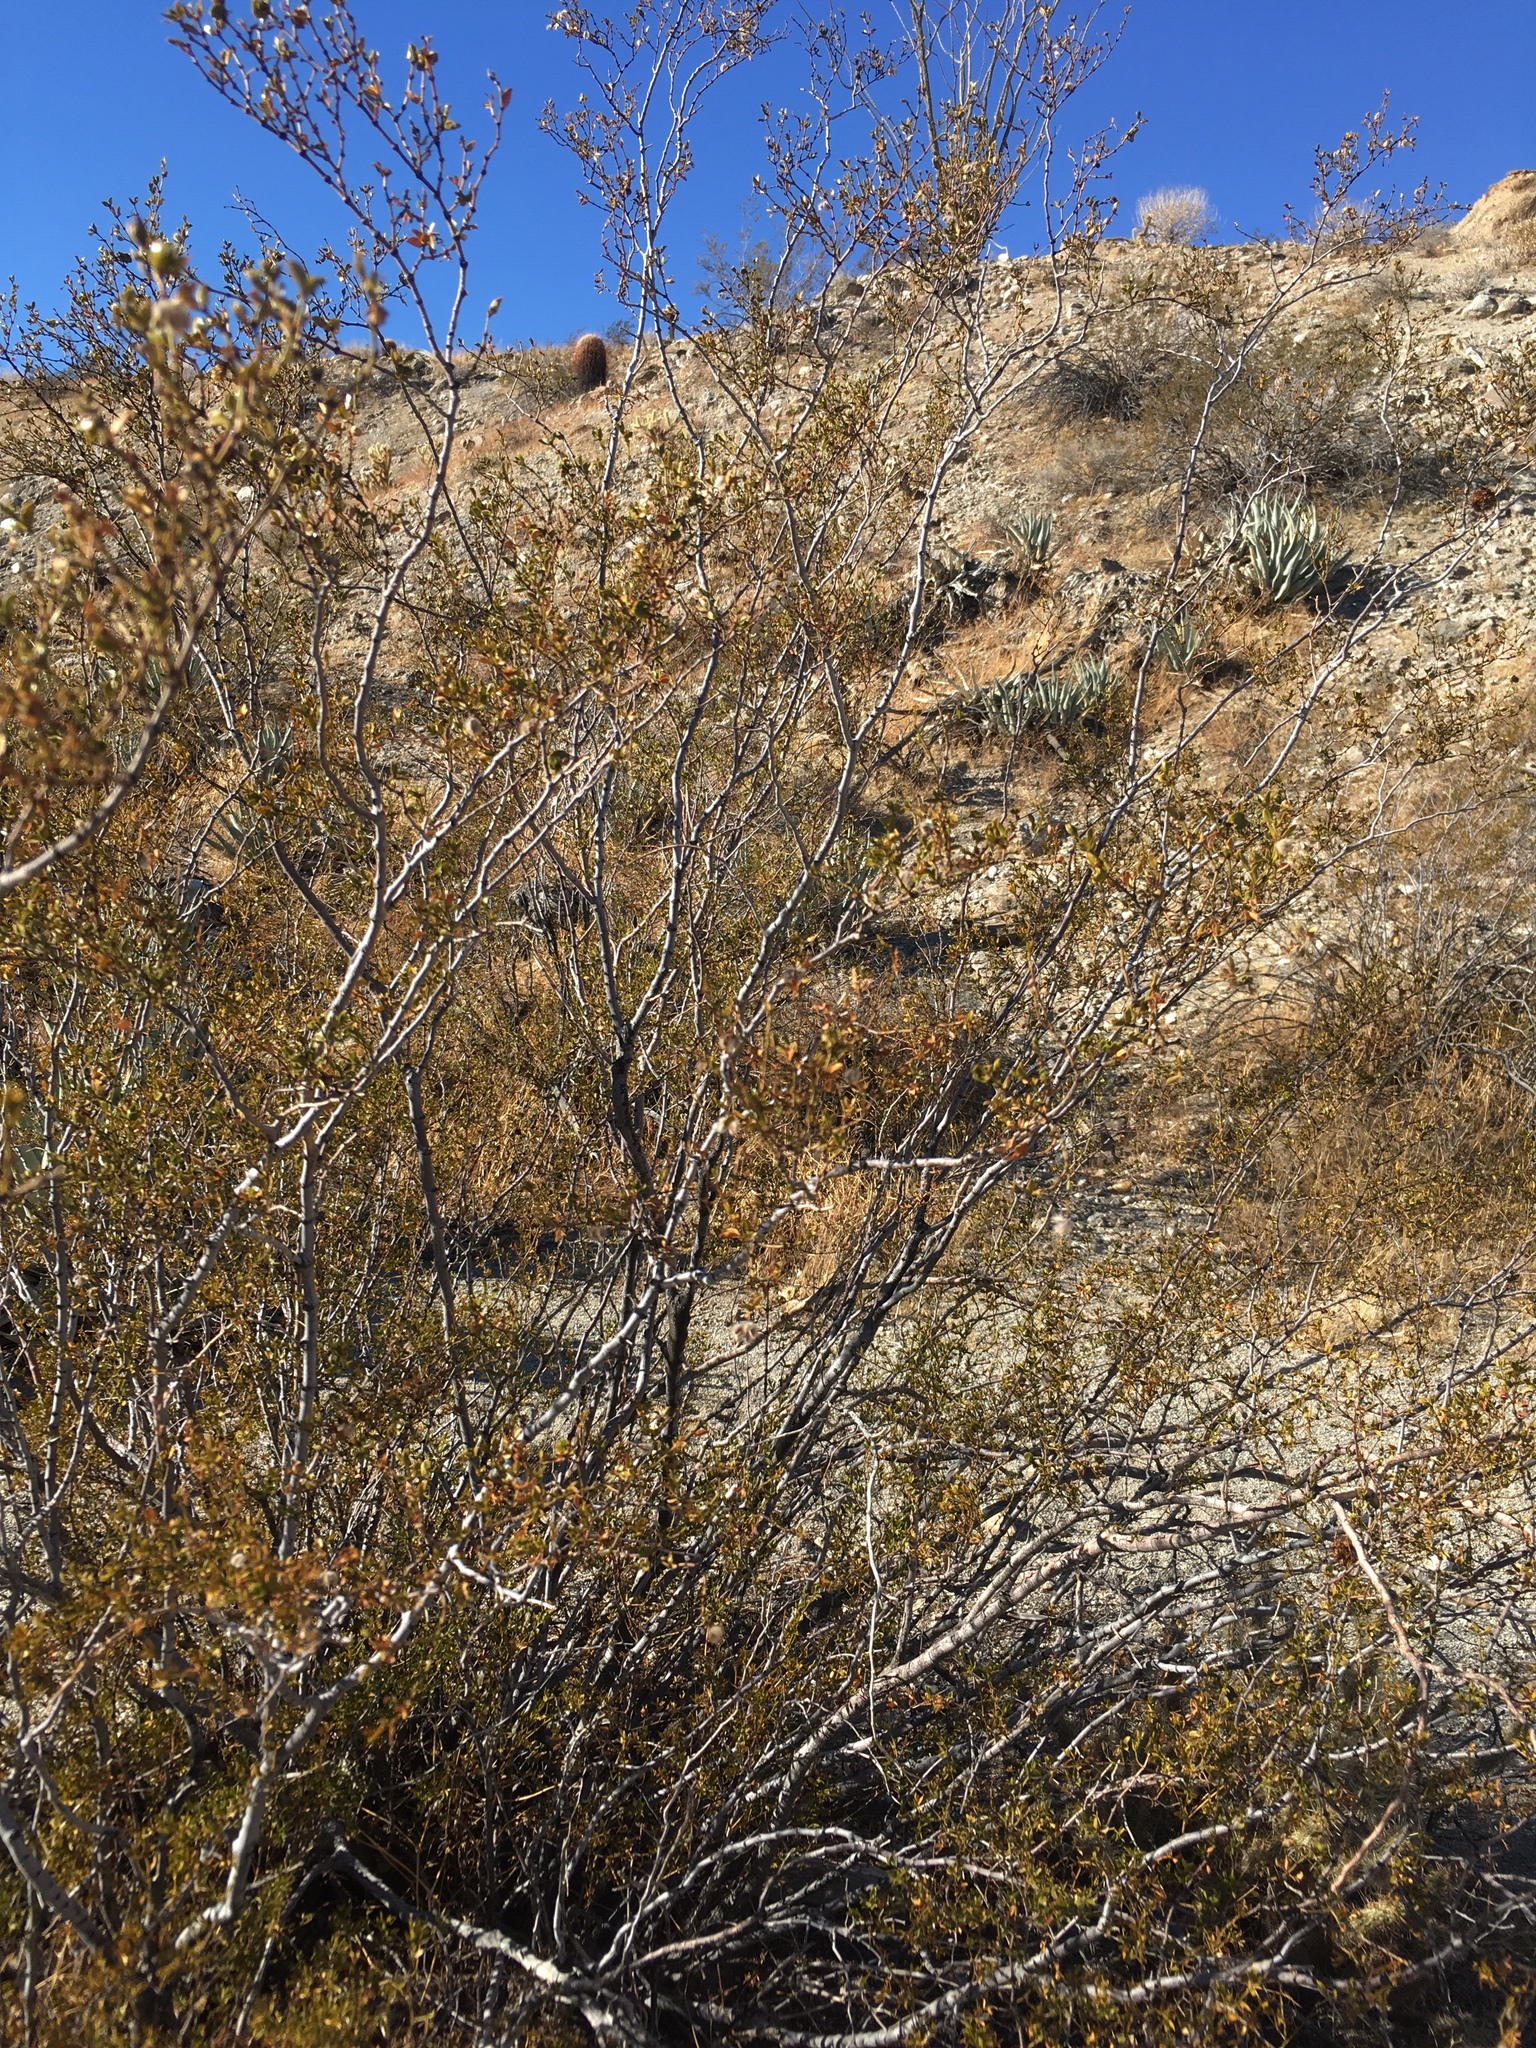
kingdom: Plantae
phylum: Tracheophyta
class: Magnoliopsida
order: Zygophyllales
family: Zygophyllaceae
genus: Larrea
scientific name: Larrea tridentata
